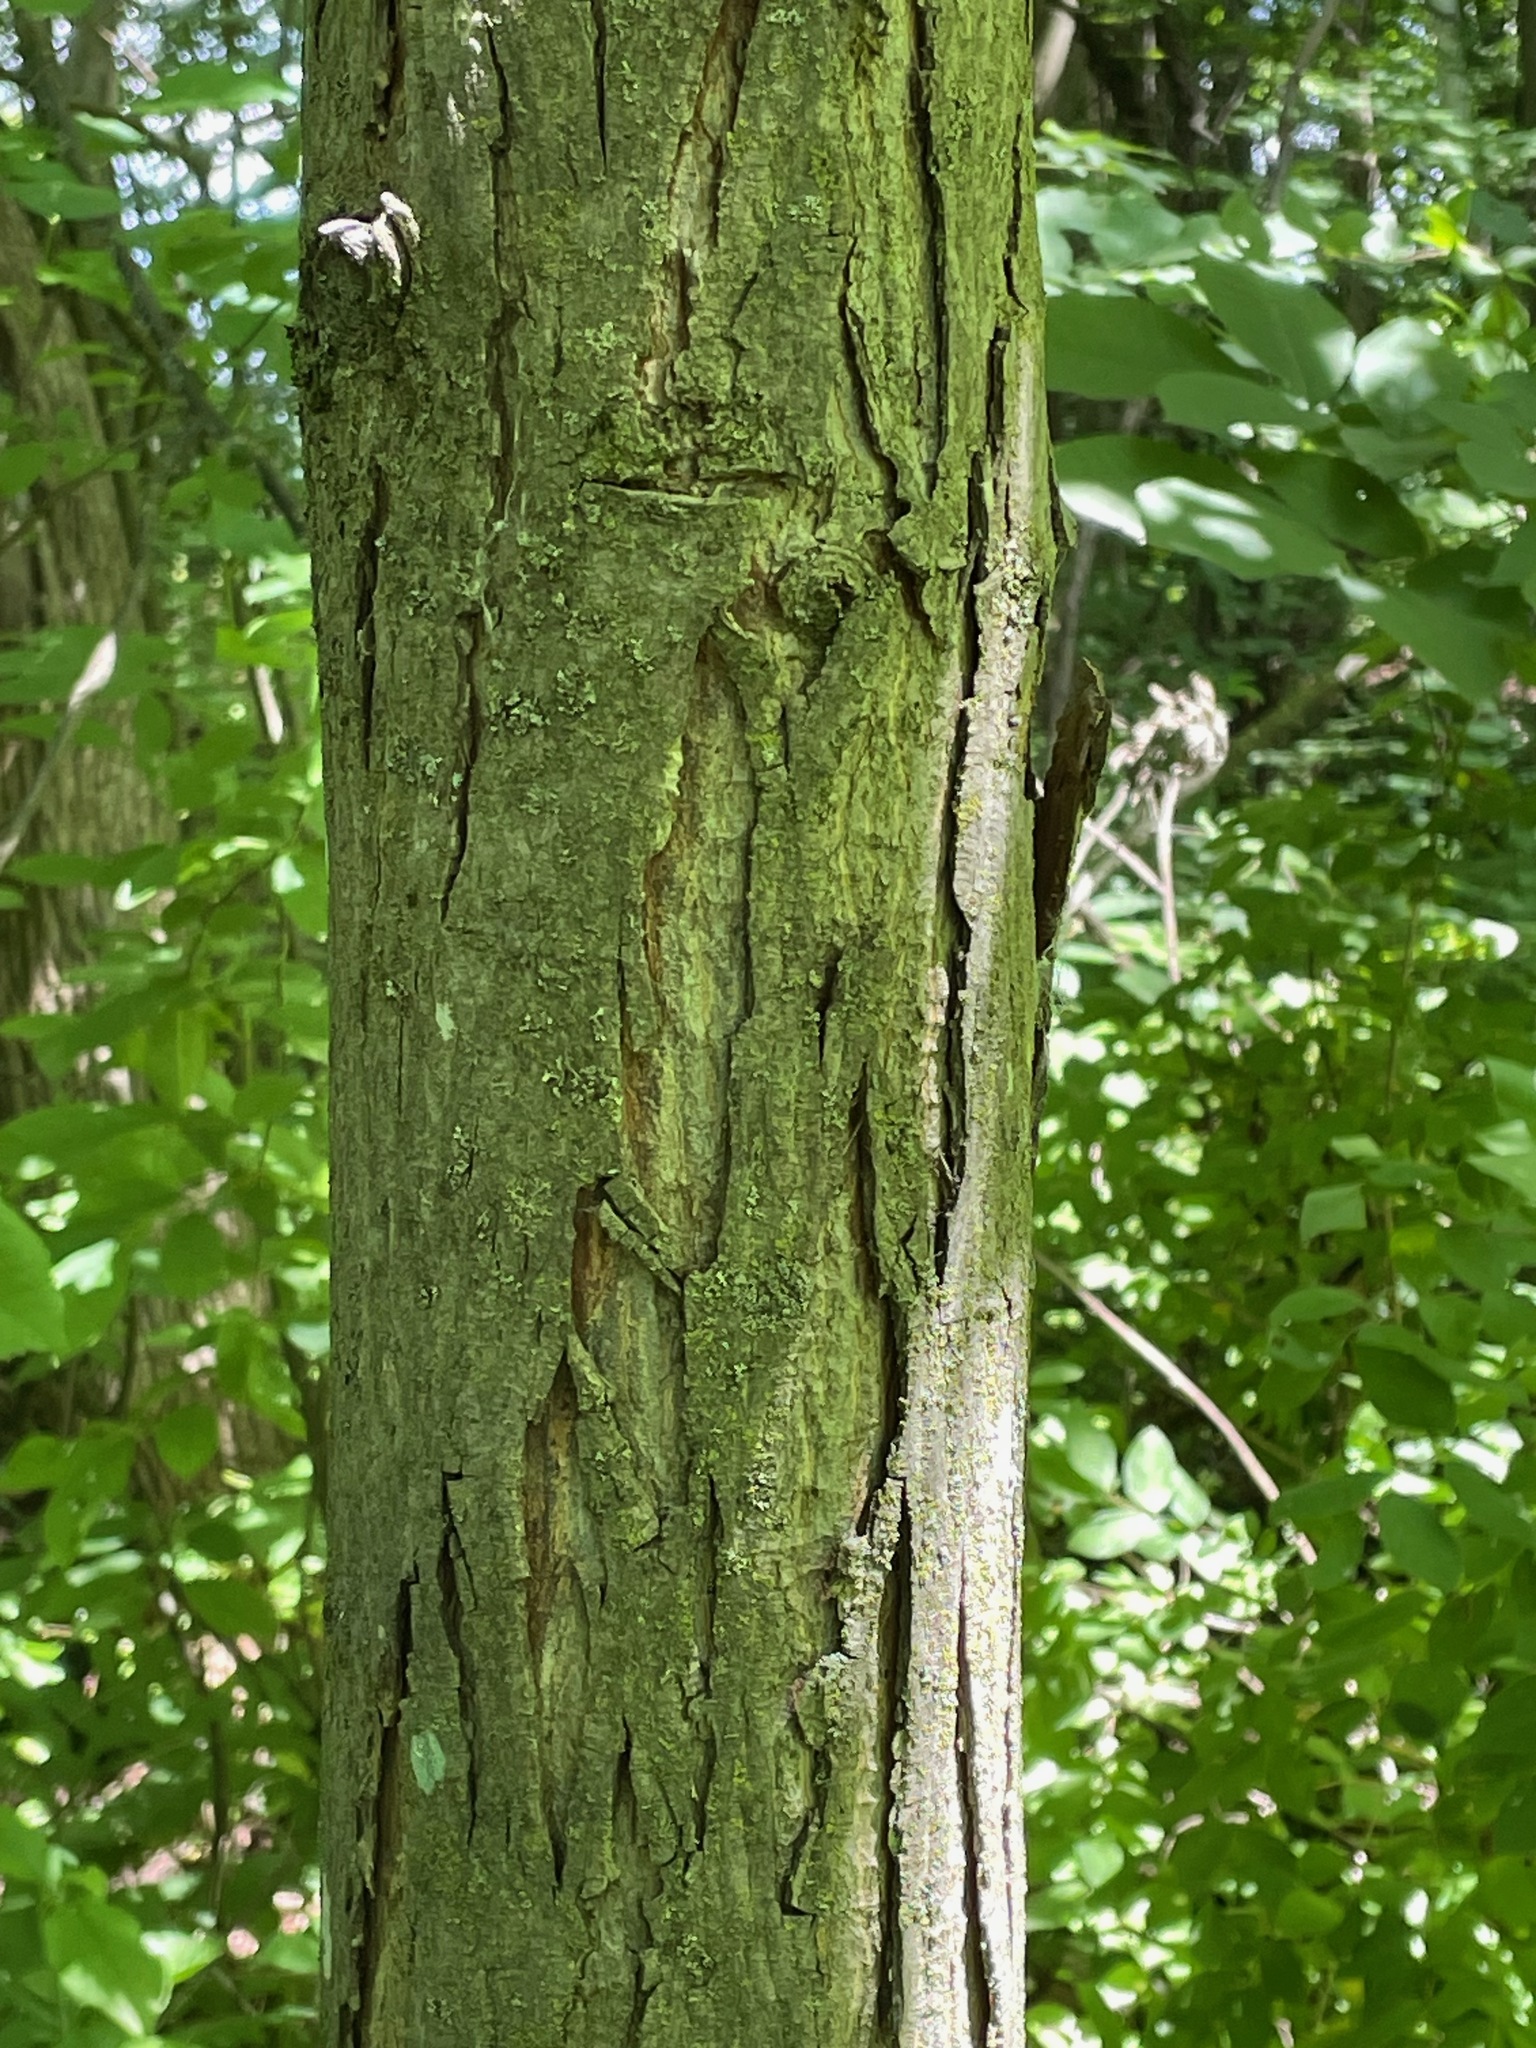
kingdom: Plantae
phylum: Tracheophyta
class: Magnoliopsida
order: Fagales
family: Juglandaceae
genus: Carya
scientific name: Carya ovata
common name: Shagbark hickory
